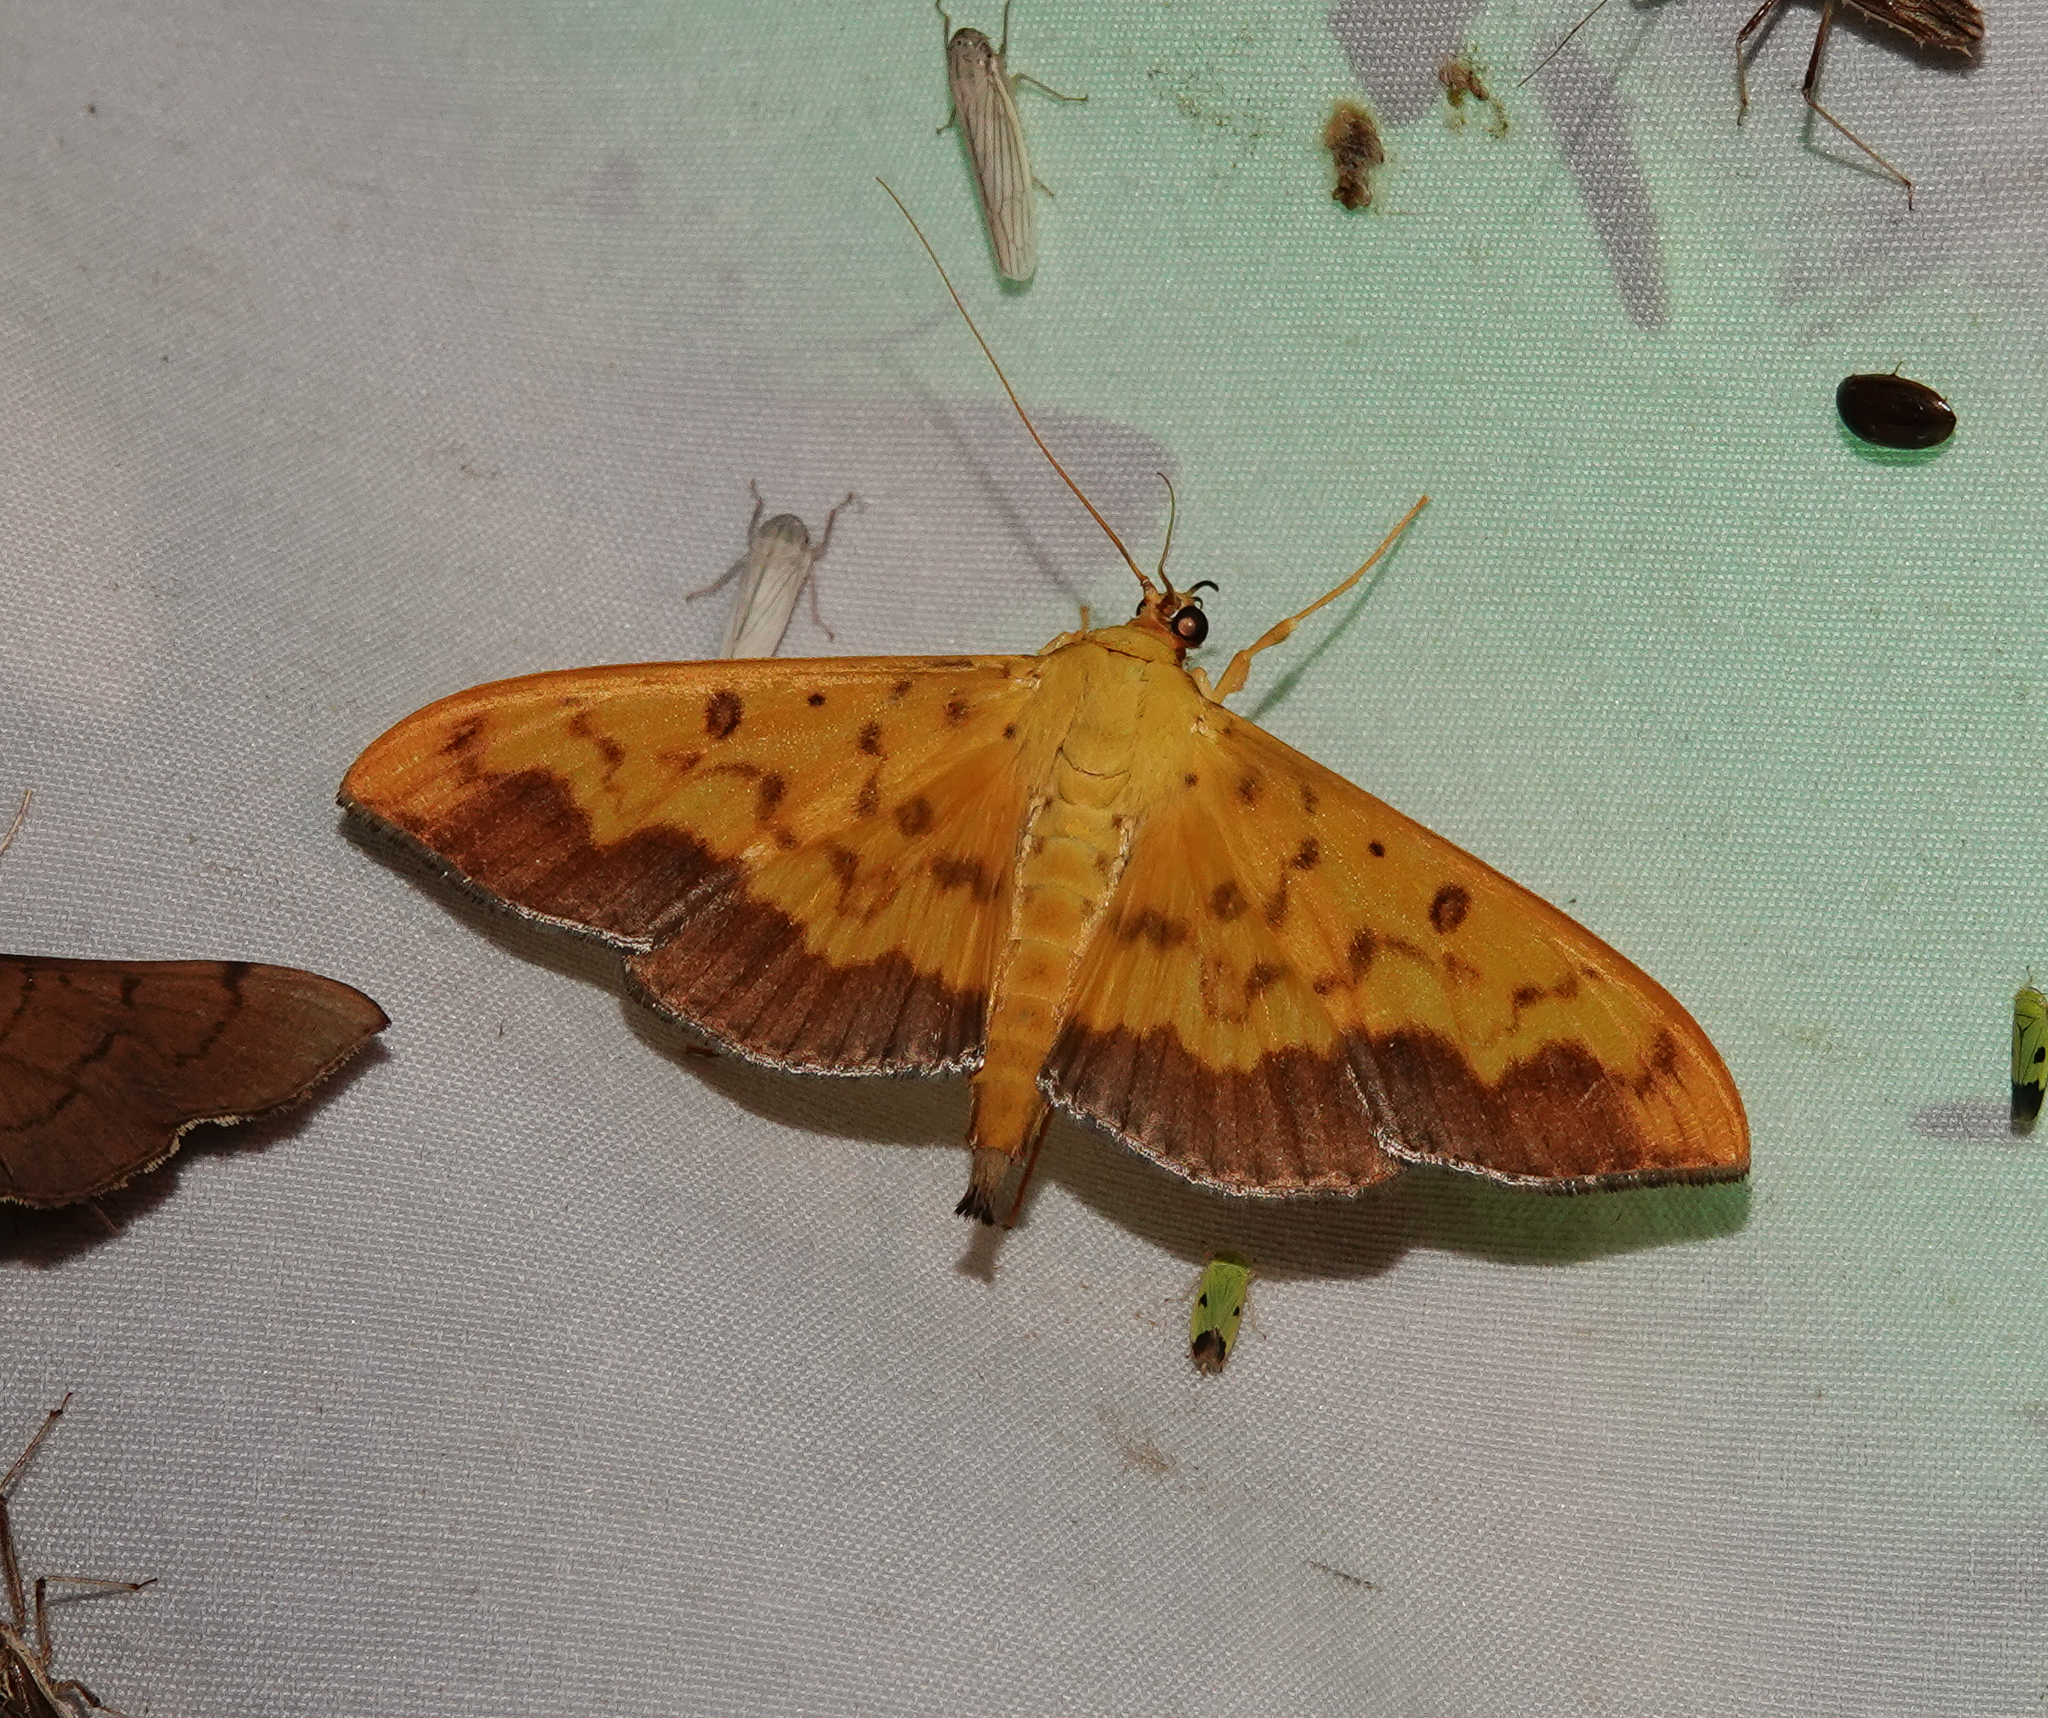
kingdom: Animalia
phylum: Arthropoda
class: Insecta
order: Lepidoptera
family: Crambidae
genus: Botyodes
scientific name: Botyodes asialis
